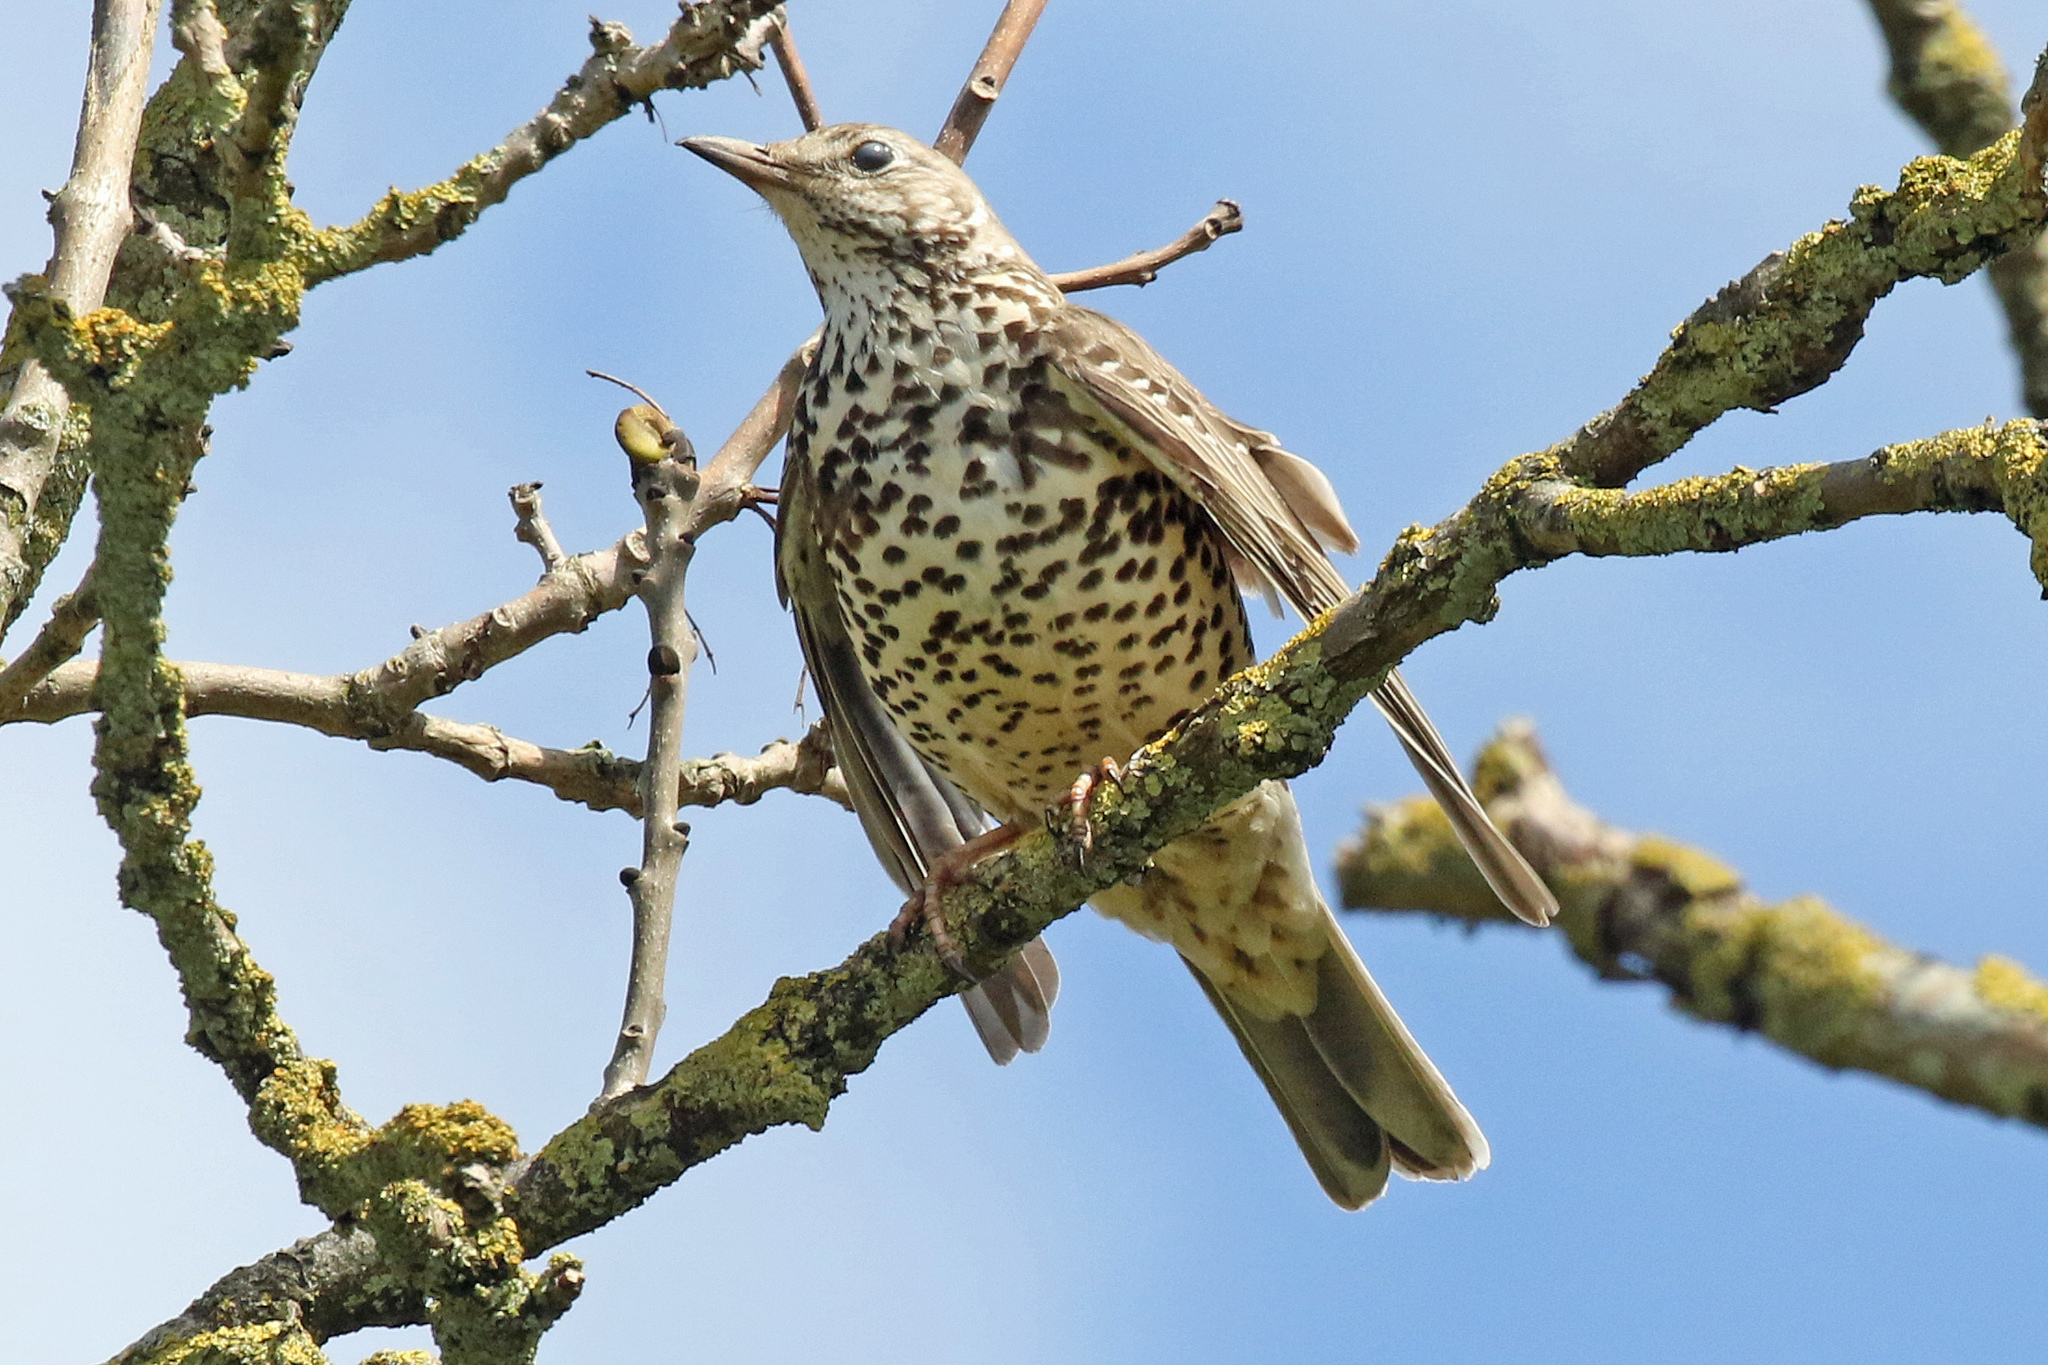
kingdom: Animalia
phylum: Chordata
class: Aves
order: Passeriformes
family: Turdidae
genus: Turdus
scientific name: Turdus viscivorus
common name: Mistle thrush
